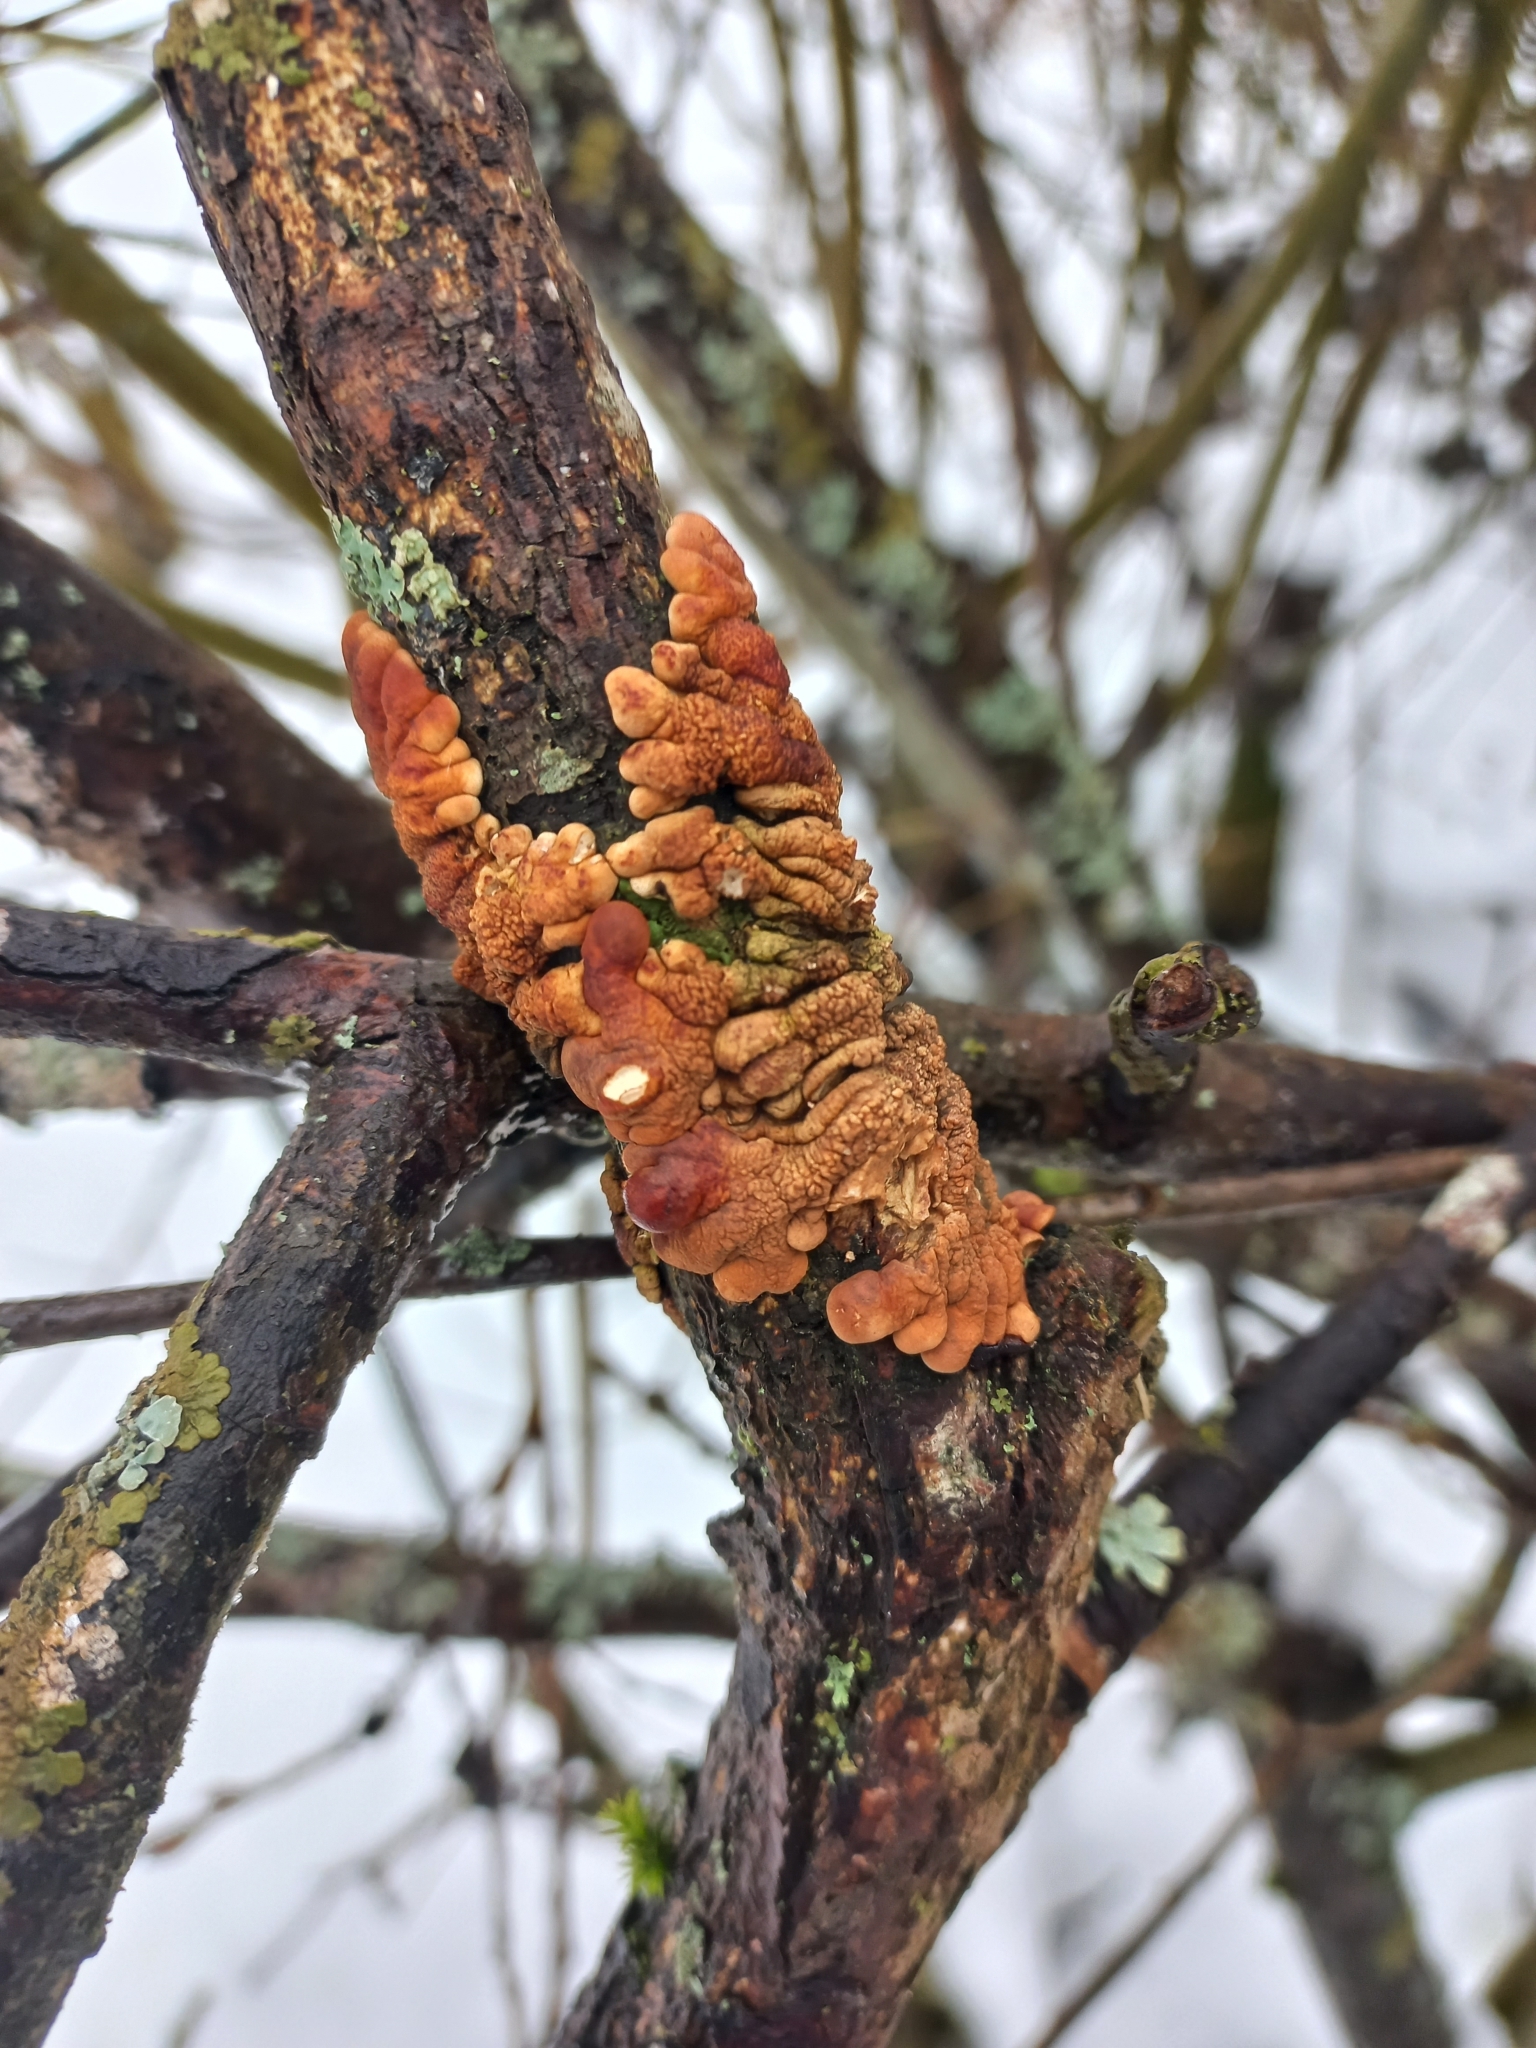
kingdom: Fungi
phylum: Ascomycota
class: Sordariomycetes
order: Hypocreales
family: Hypocreaceae
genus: Hypocreopsis
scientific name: Hypocreopsis lichenoides
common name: Willow gloves
